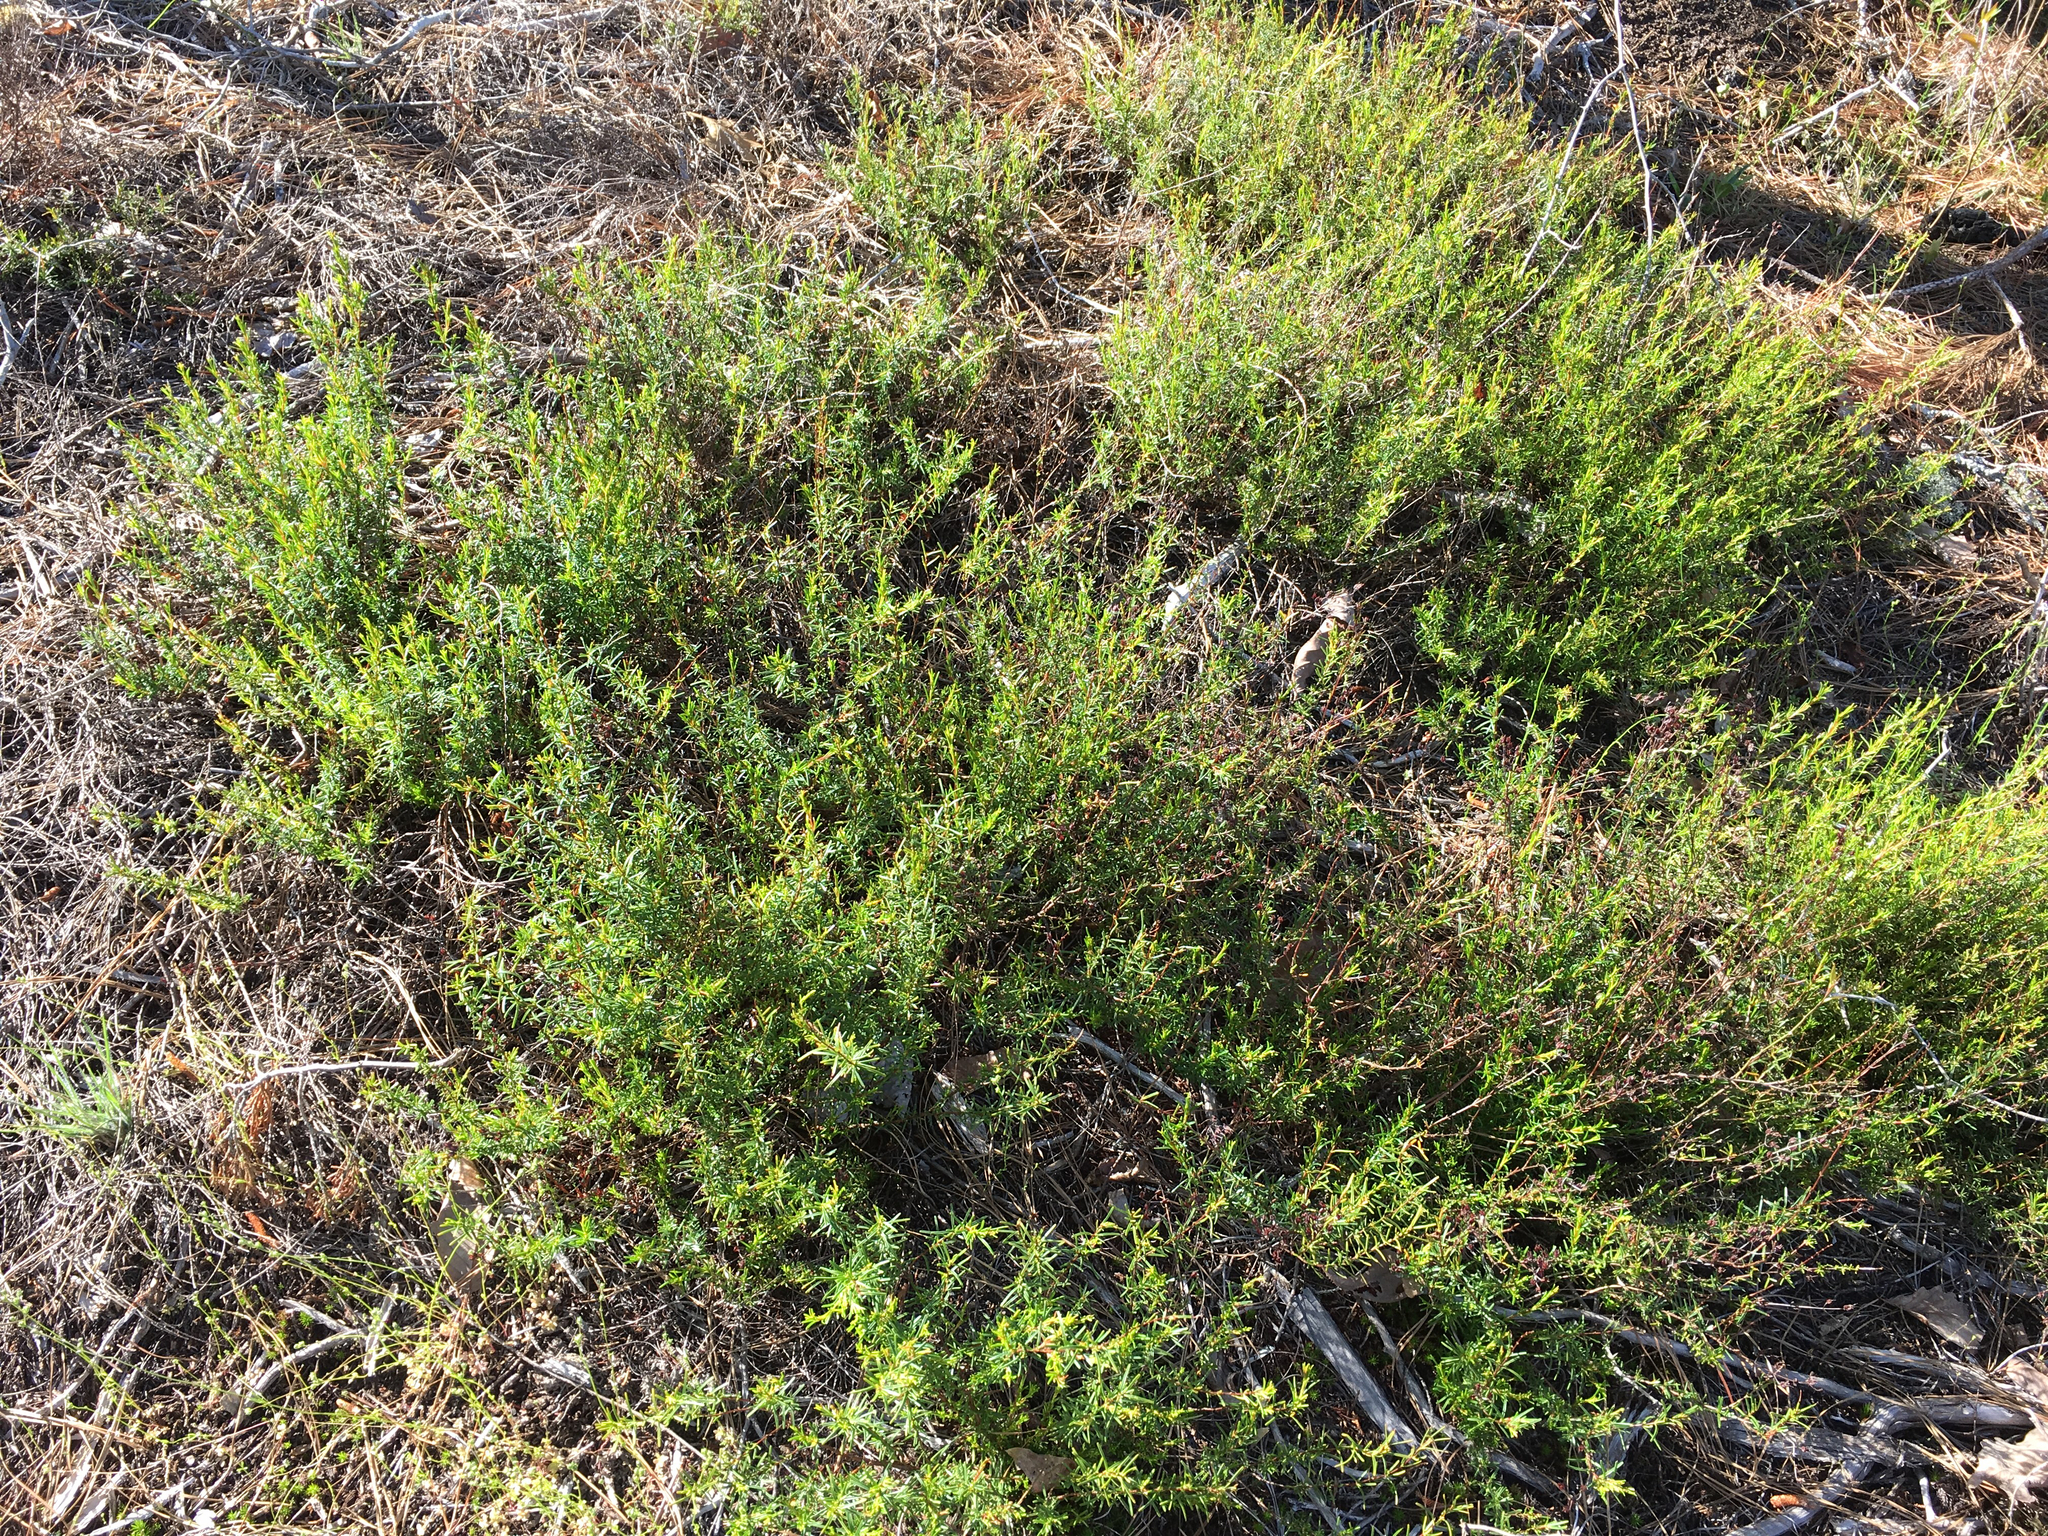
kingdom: Plantae
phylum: Tracheophyta
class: Magnoliopsida
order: Malpighiales
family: Hypericaceae
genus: Hypericum
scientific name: Hypericum lloydii
